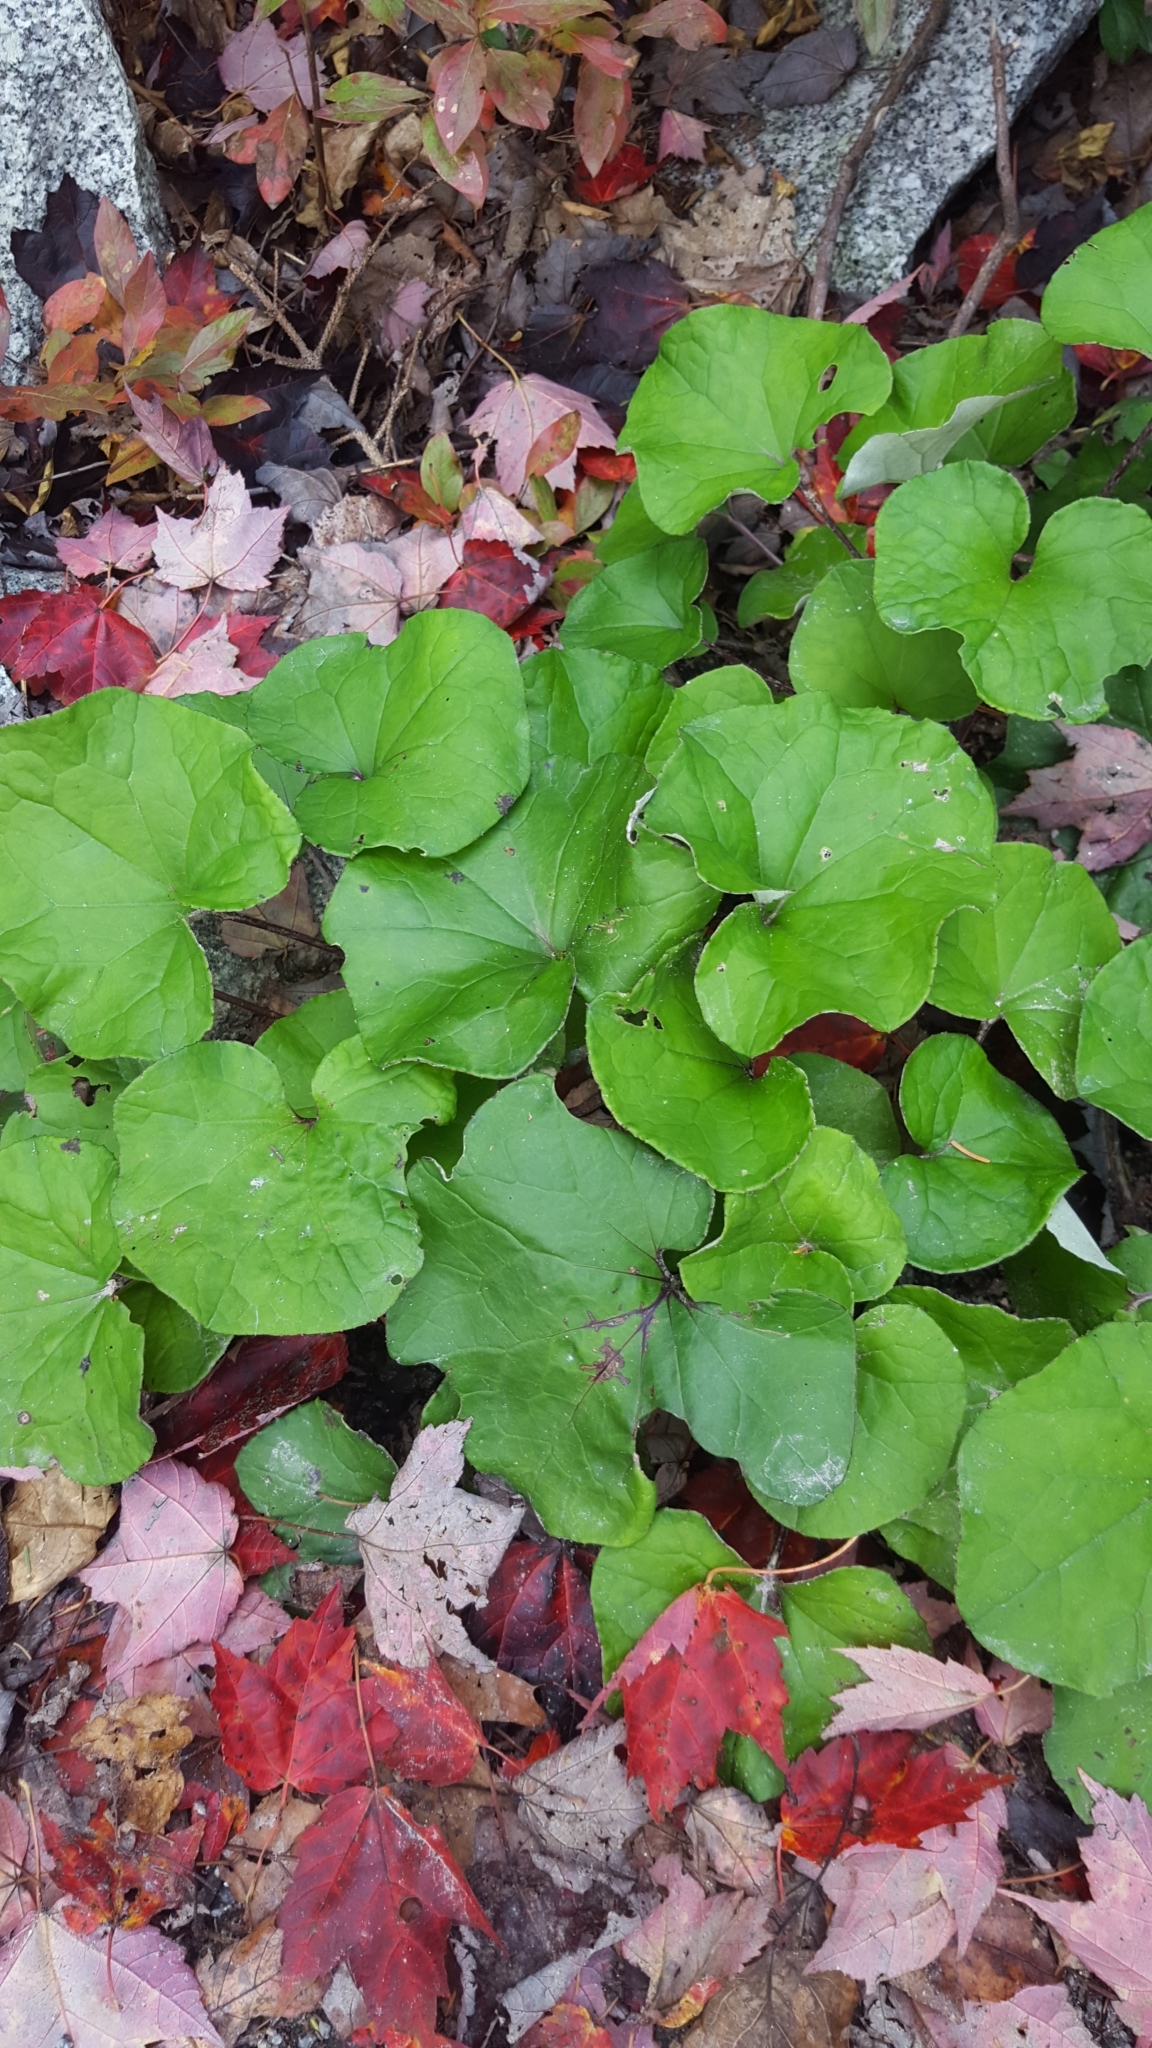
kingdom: Plantae
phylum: Tracheophyta
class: Magnoliopsida
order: Asterales
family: Asteraceae
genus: Tussilago
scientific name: Tussilago farfara
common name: Coltsfoot
